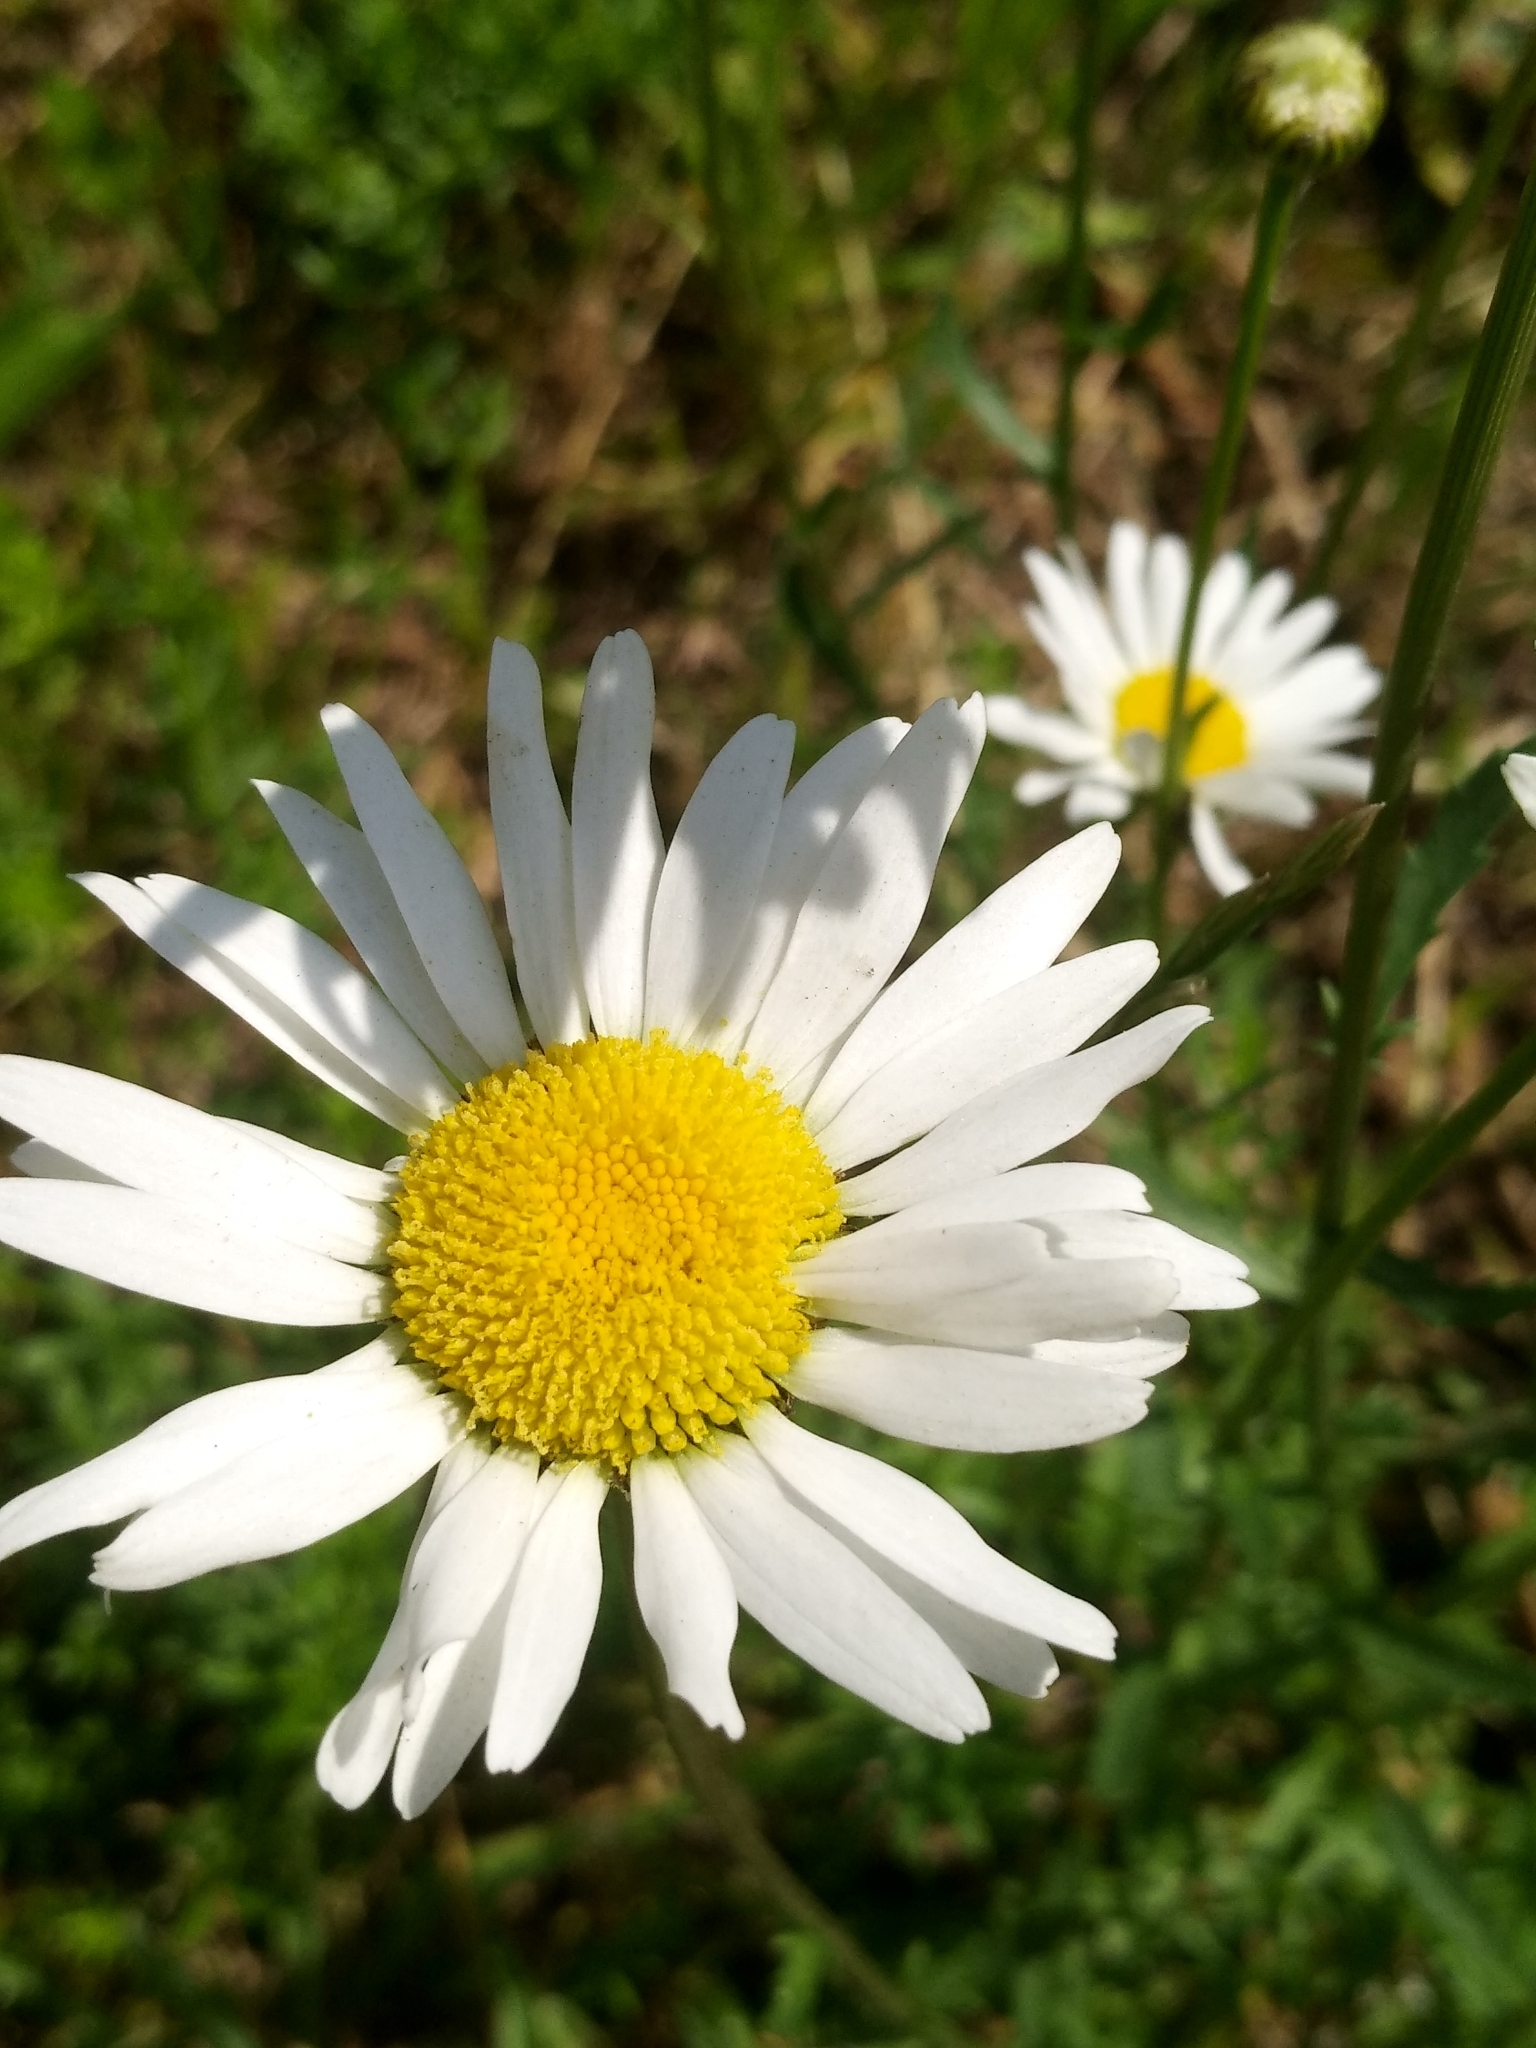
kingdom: Plantae
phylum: Tracheophyta
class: Magnoliopsida
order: Asterales
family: Asteraceae
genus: Leucanthemum
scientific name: Leucanthemum vulgare
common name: Oxeye daisy
